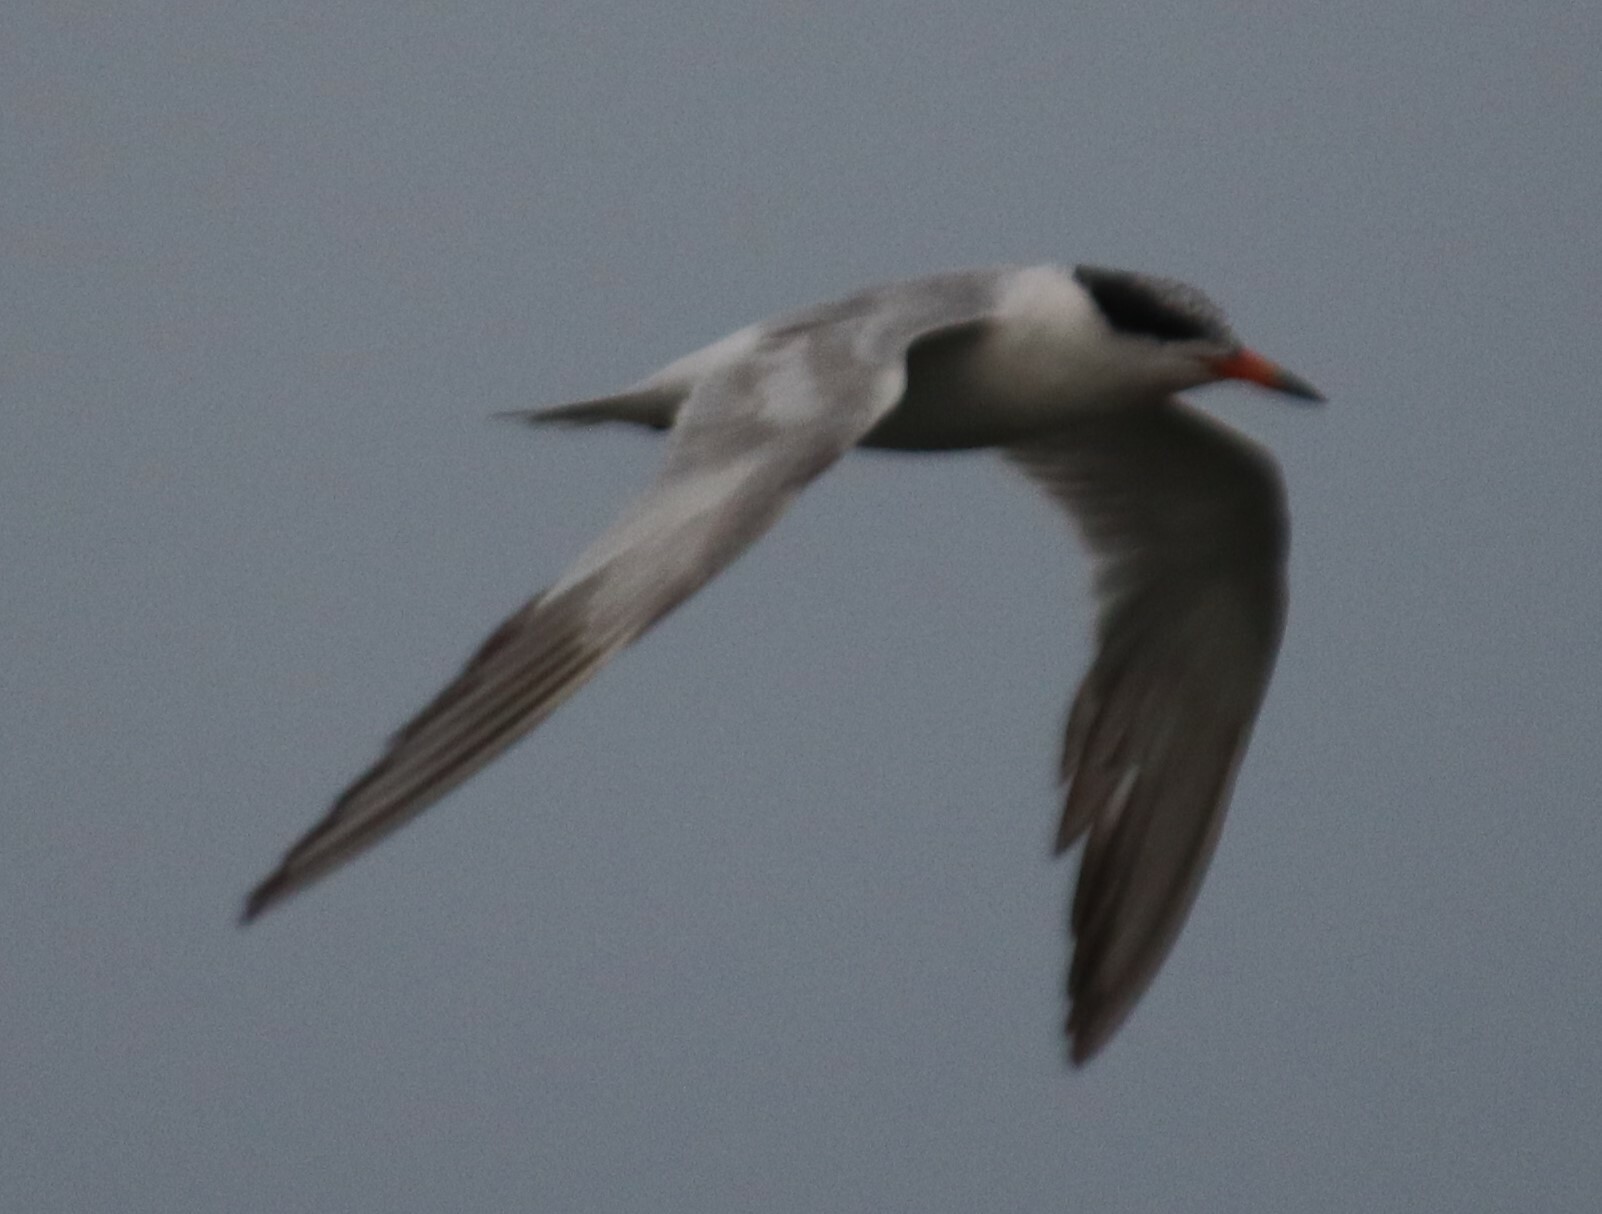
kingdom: Animalia
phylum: Chordata
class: Aves
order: Charadriiformes
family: Laridae
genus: Sterna
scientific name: Sterna forsteri
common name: Forster's tern
